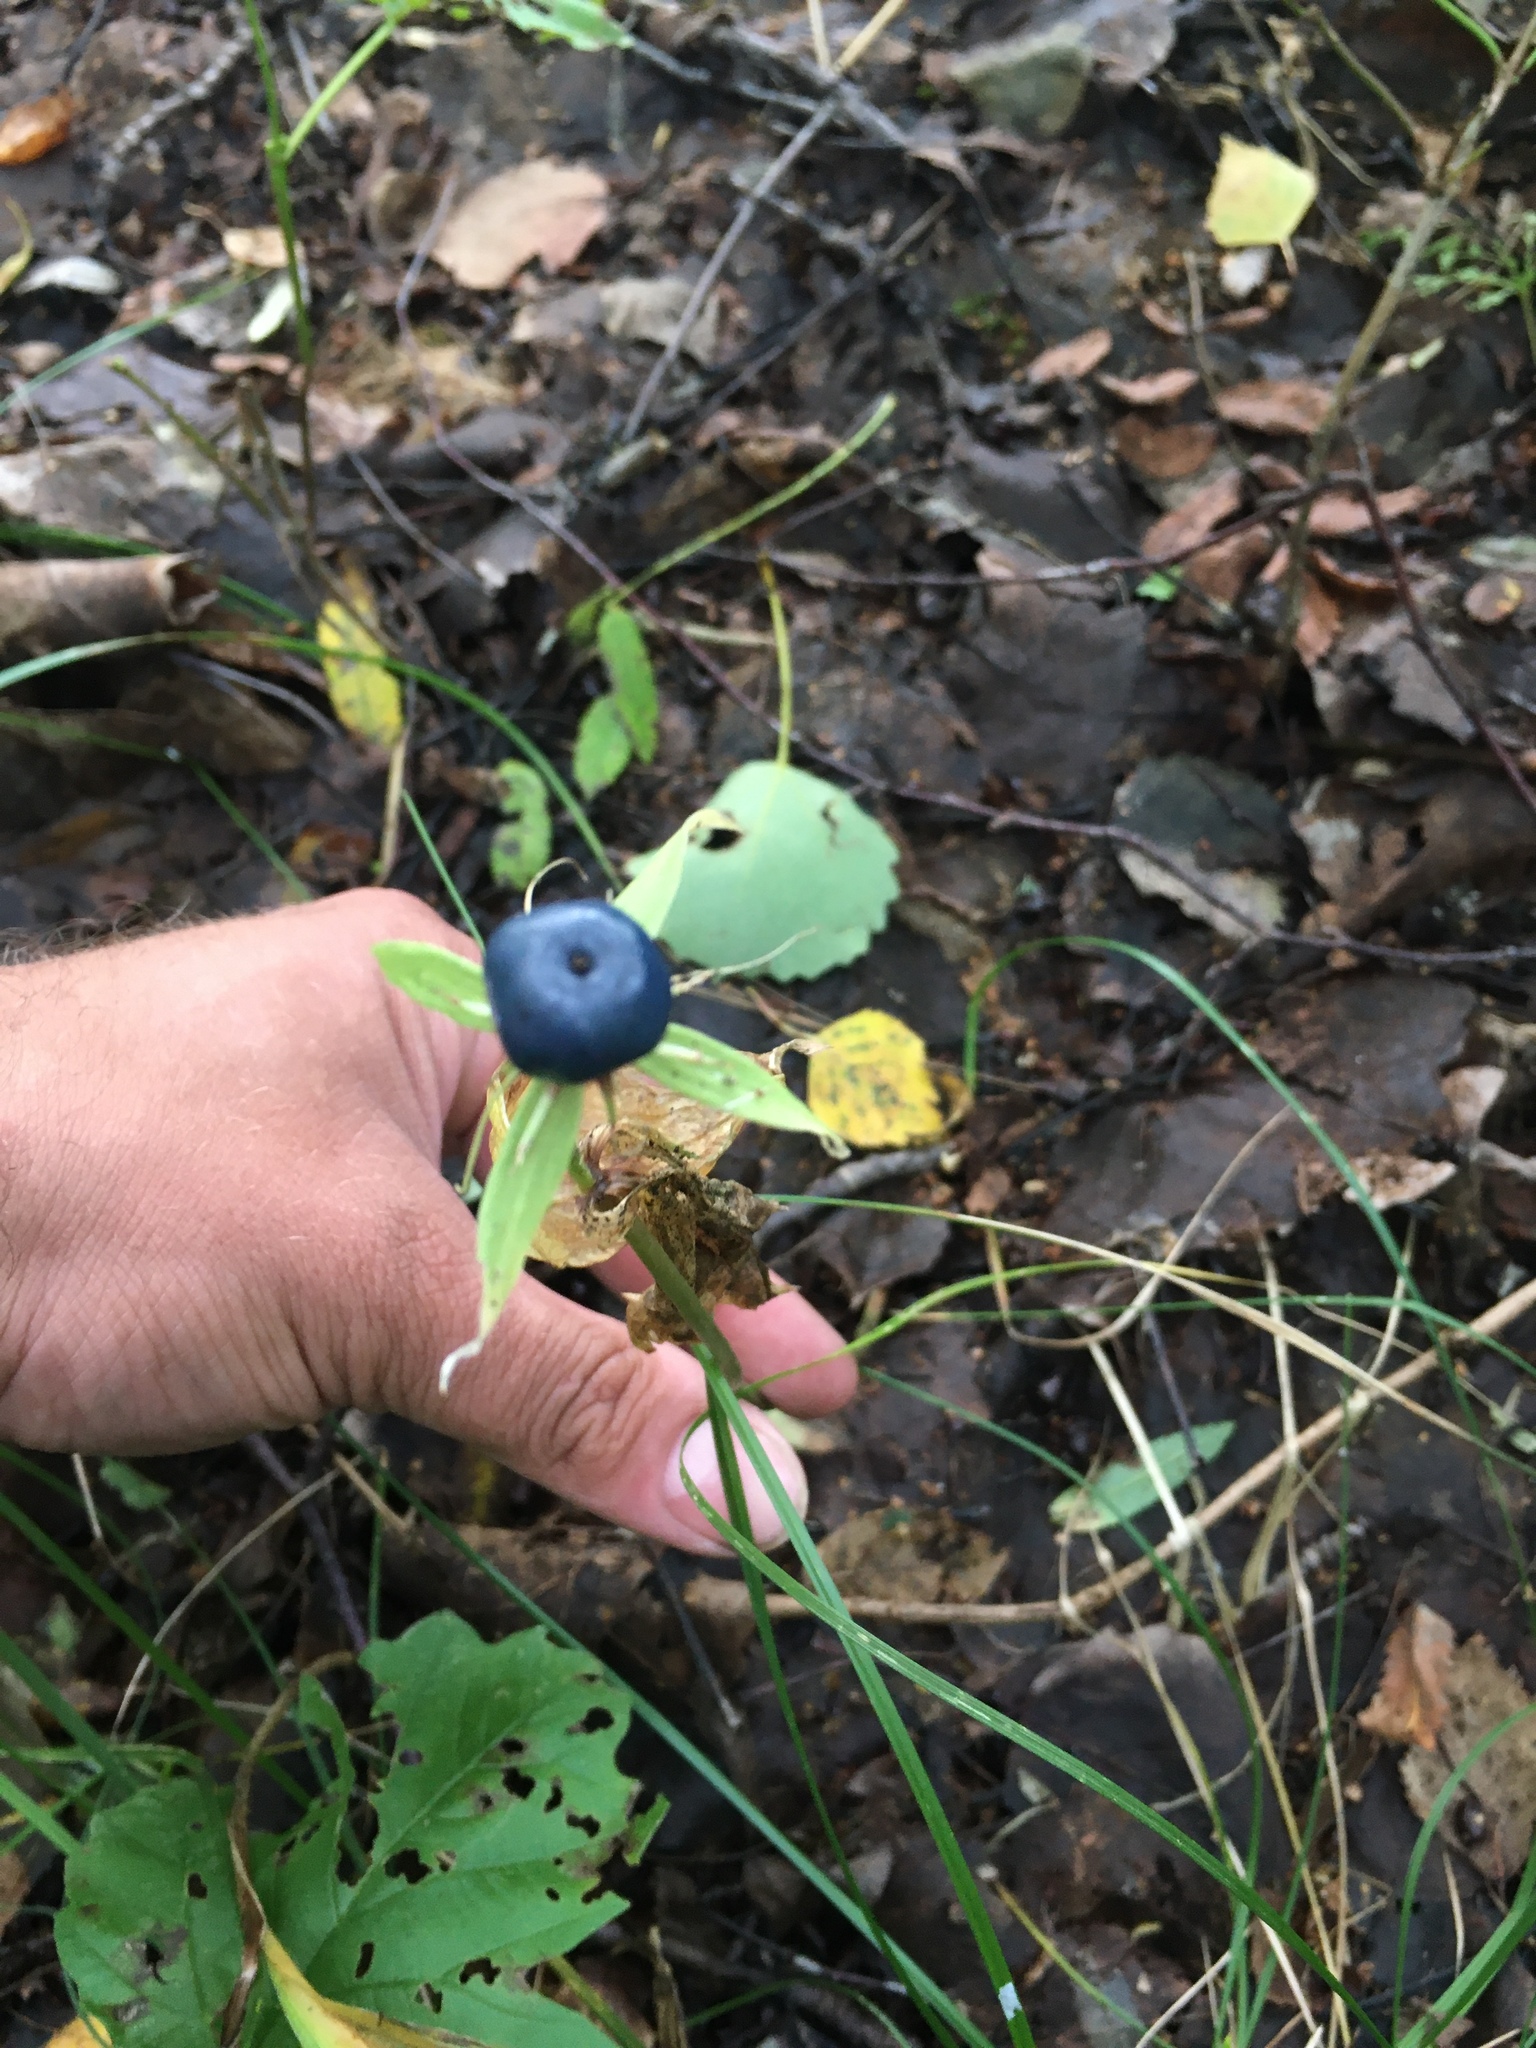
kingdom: Plantae
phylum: Tracheophyta
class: Liliopsida
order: Liliales
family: Melanthiaceae
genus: Paris
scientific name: Paris quadrifolia
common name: Herb-paris
